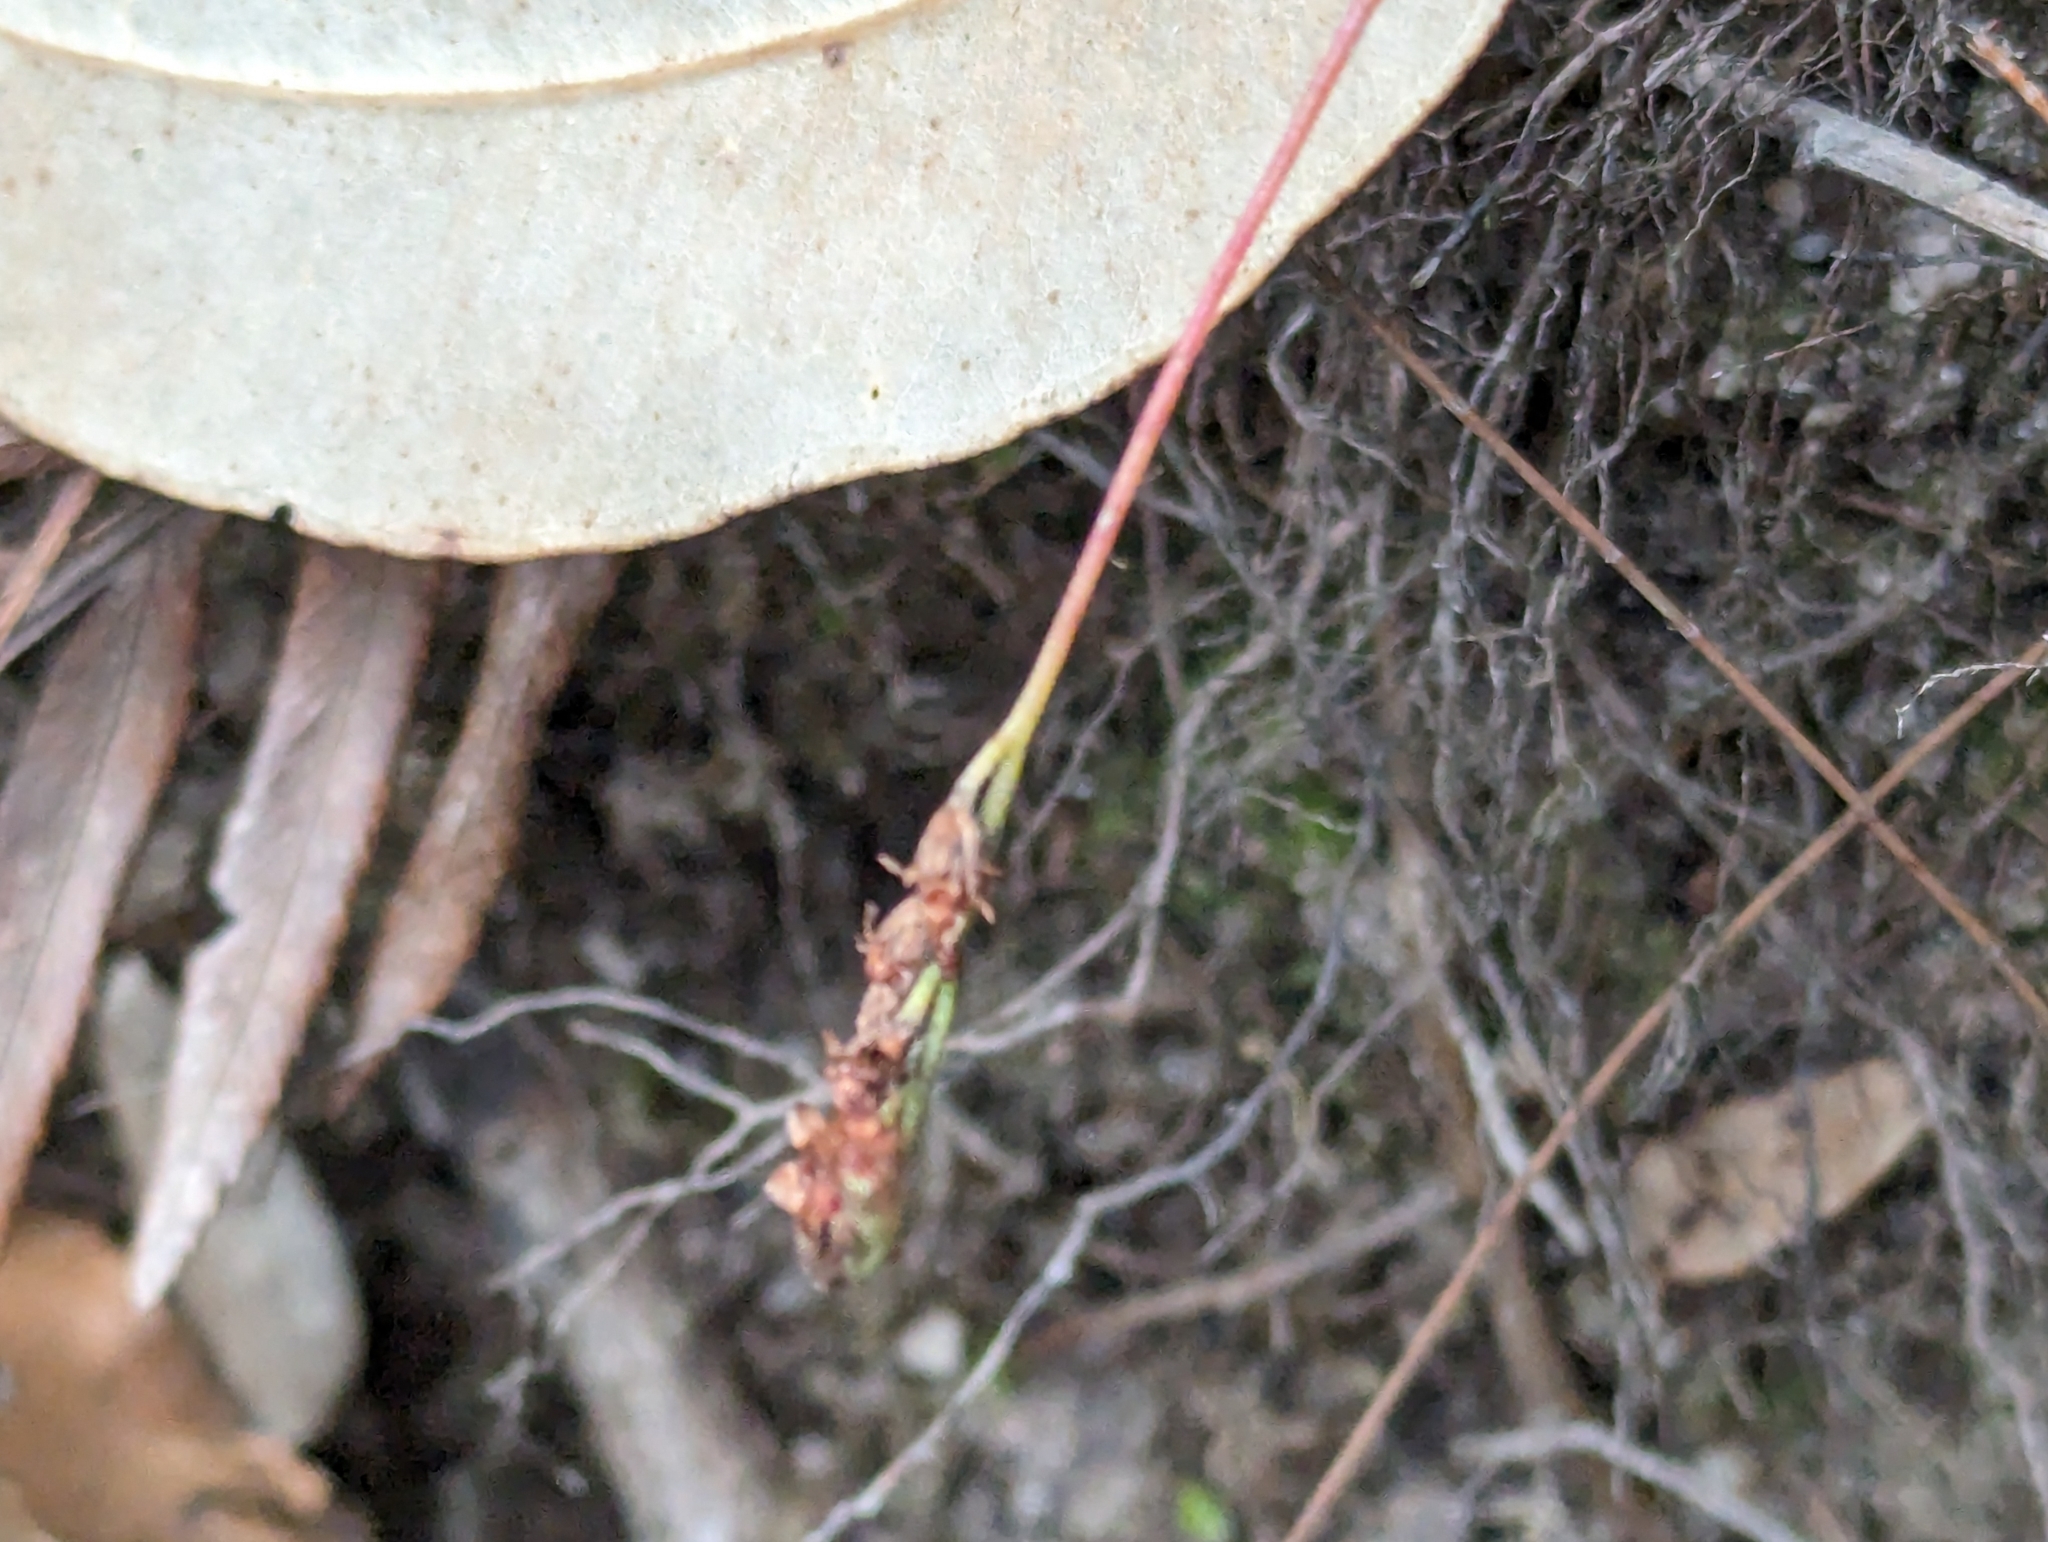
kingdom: Plantae
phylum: Tracheophyta
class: Magnoliopsida
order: Caryophyllales
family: Droseraceae
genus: Drosera
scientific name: Drosera spatulata
